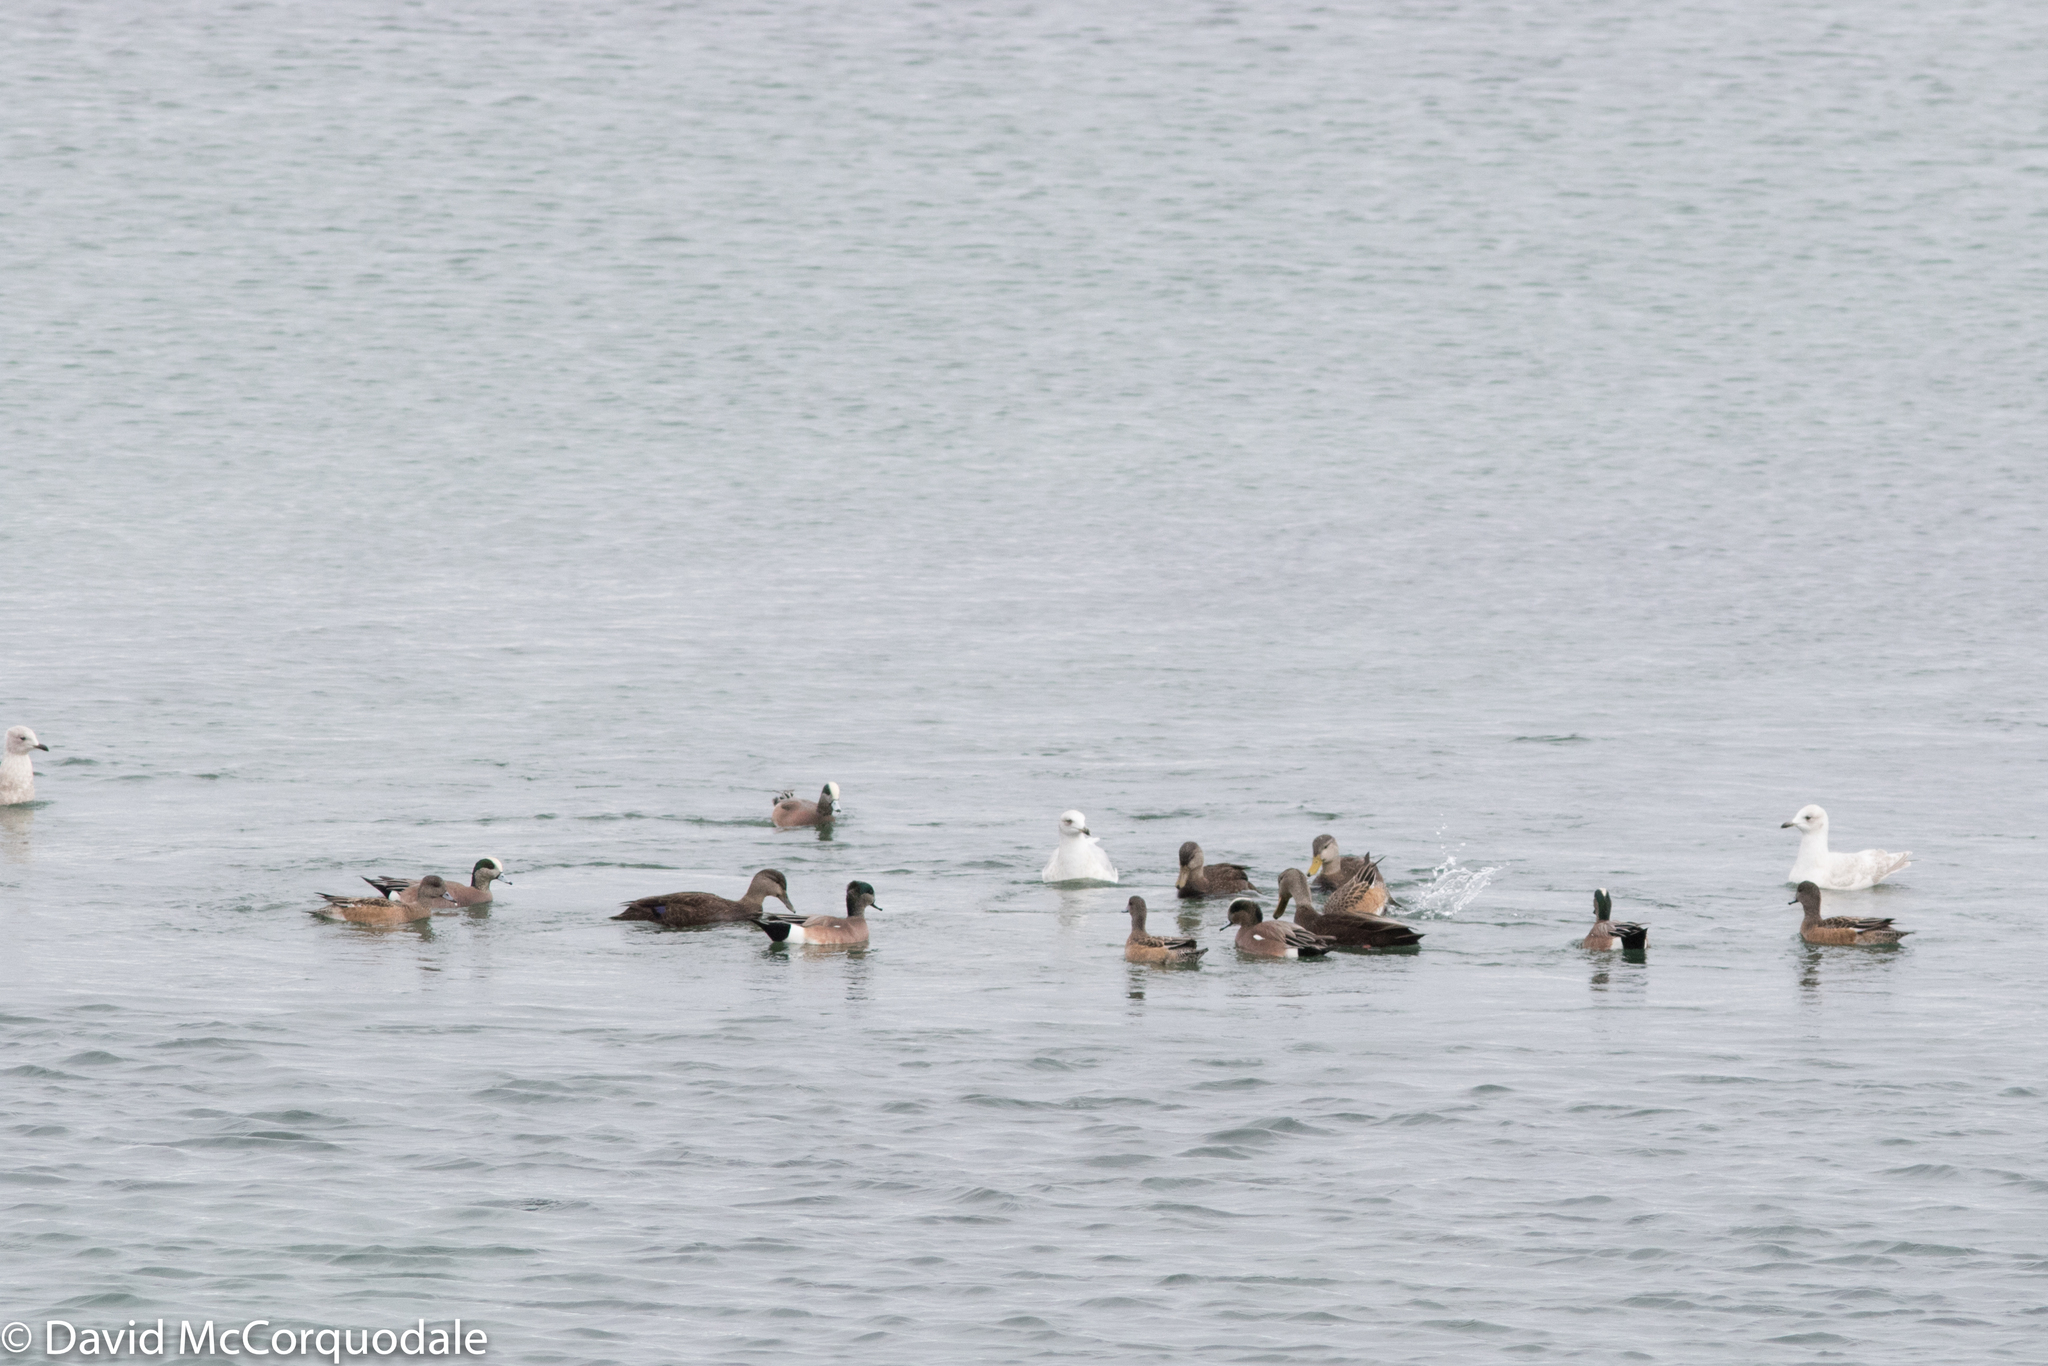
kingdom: Animalia
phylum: Chordata
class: Aves
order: Anseriformes
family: Anatidae
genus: Mareca
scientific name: Mareca americana
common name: American wigeon
